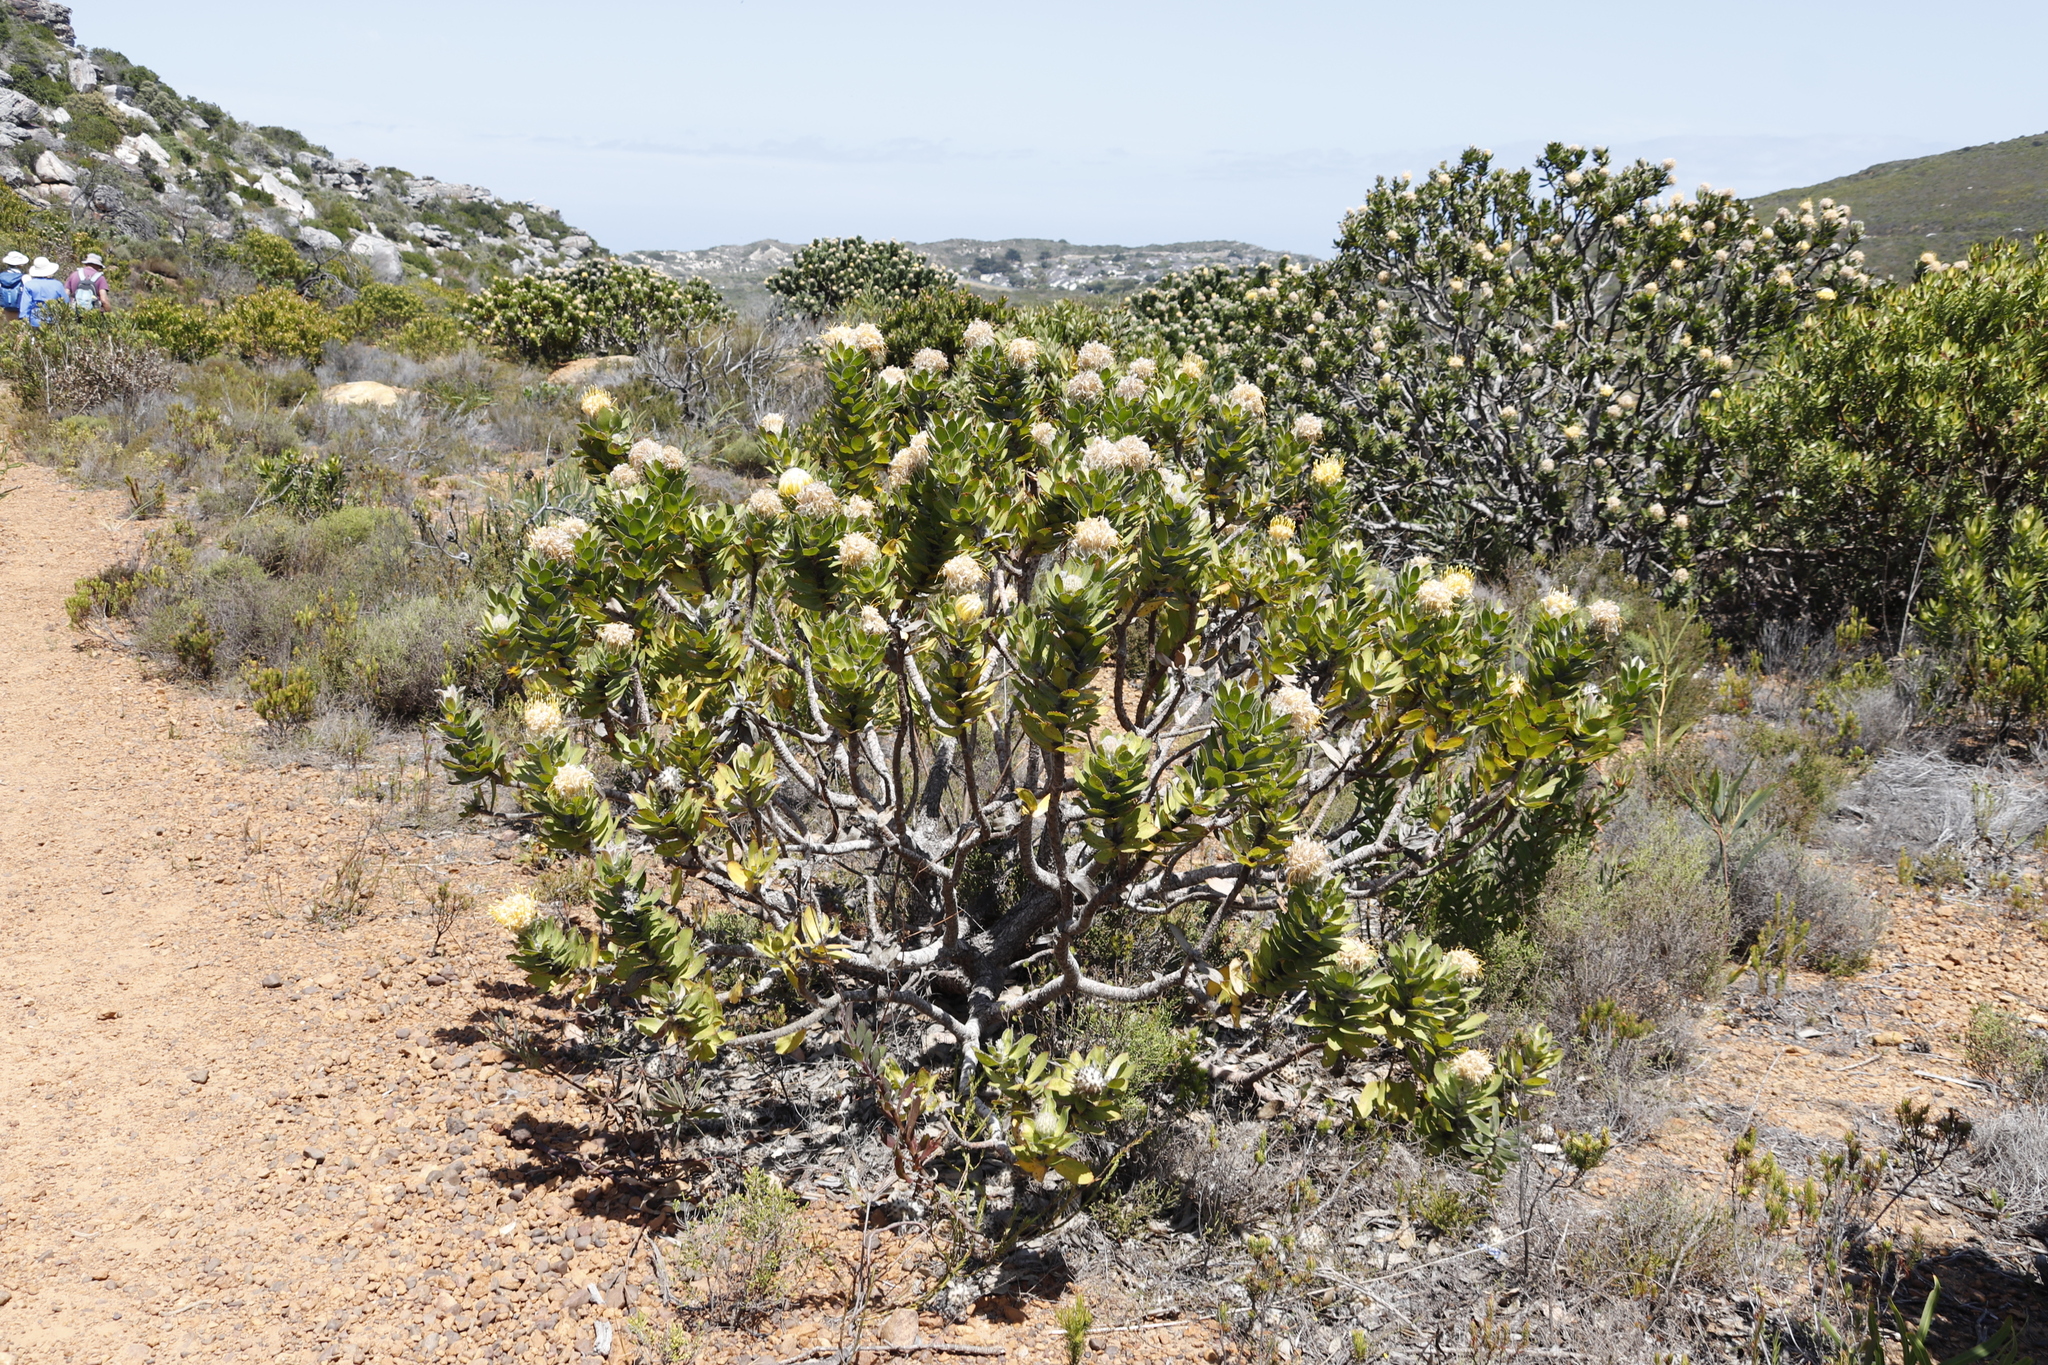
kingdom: Plantae
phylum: Tracheophyta
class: Magnoliopsida
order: Proteales
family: Proteaceae
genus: Leucospermum
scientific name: Leucospermum conocarpodendron
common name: Tree pincushion
